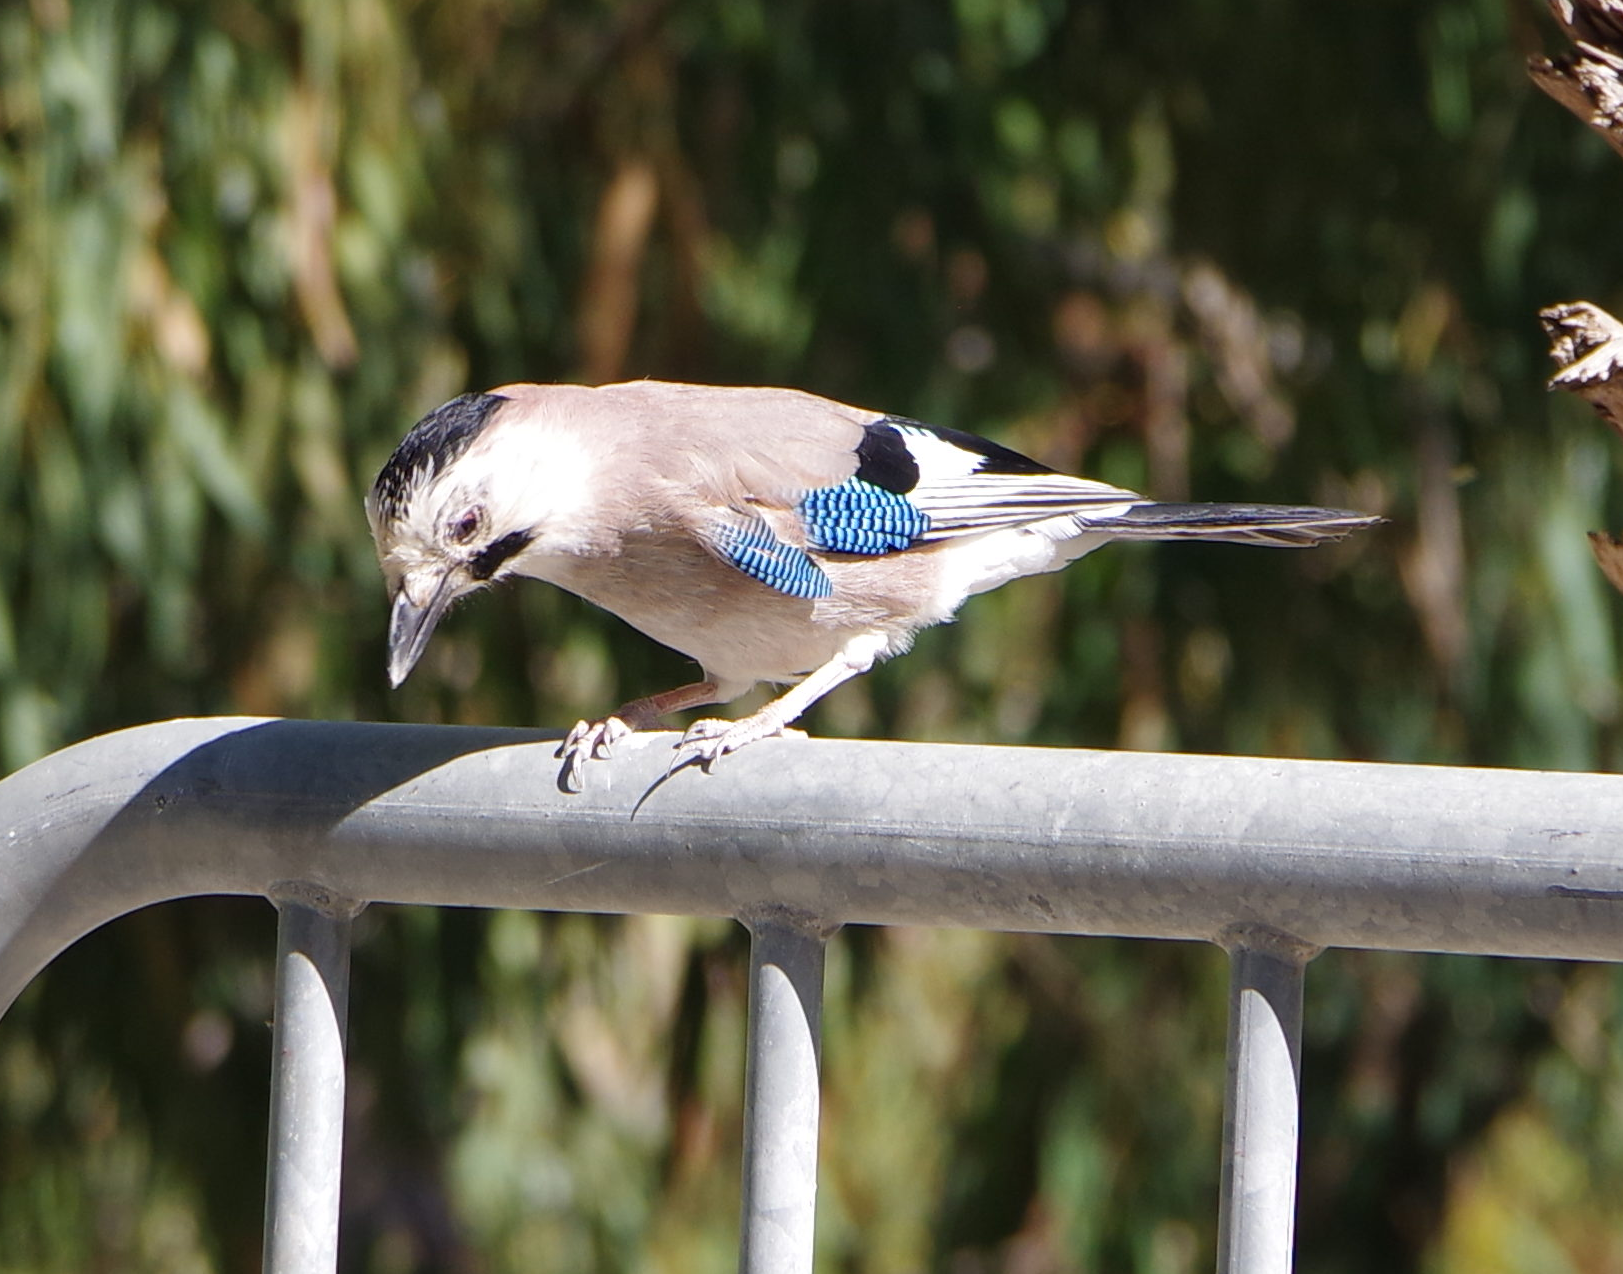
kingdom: Animalia
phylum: Chordata
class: Aves
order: Passeriformes
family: Corvidae
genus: Garrulus
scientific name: Garrulus glandarius
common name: Eurasian jay
